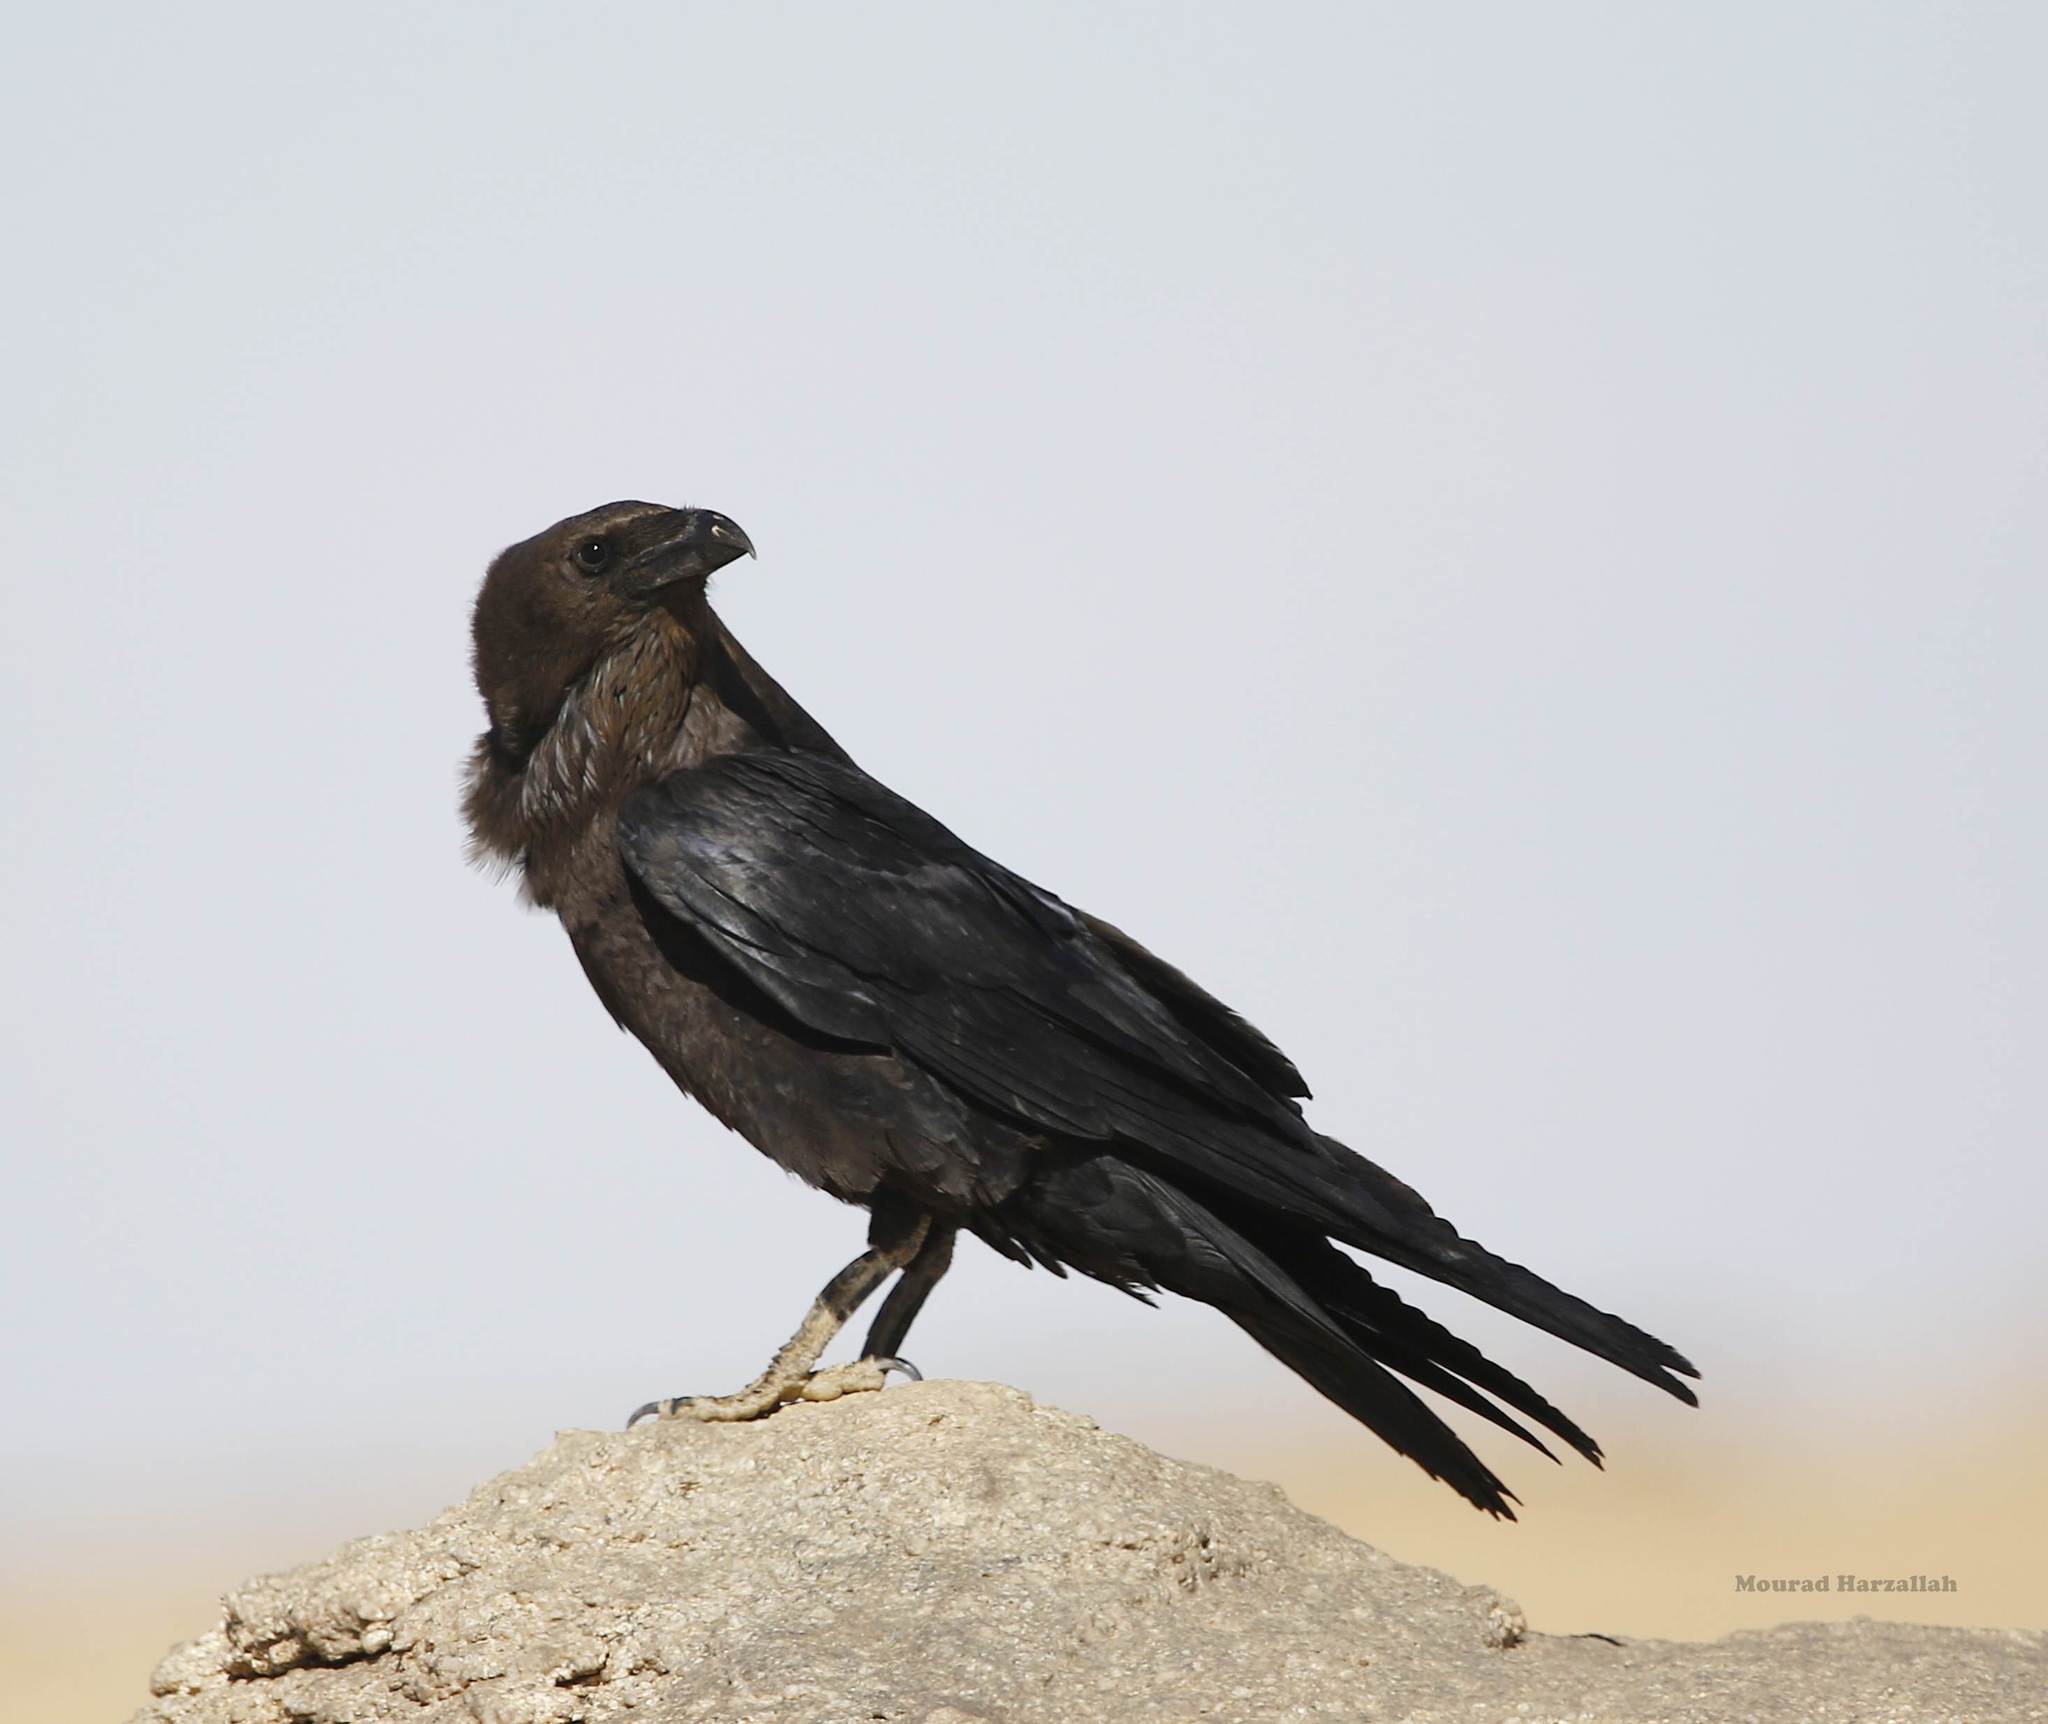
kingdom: Animalia
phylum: Chordata
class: Aves
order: Passeriformes
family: Corvidae
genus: Corvus
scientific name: Corvus ruficollis
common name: Brown-necked raven
